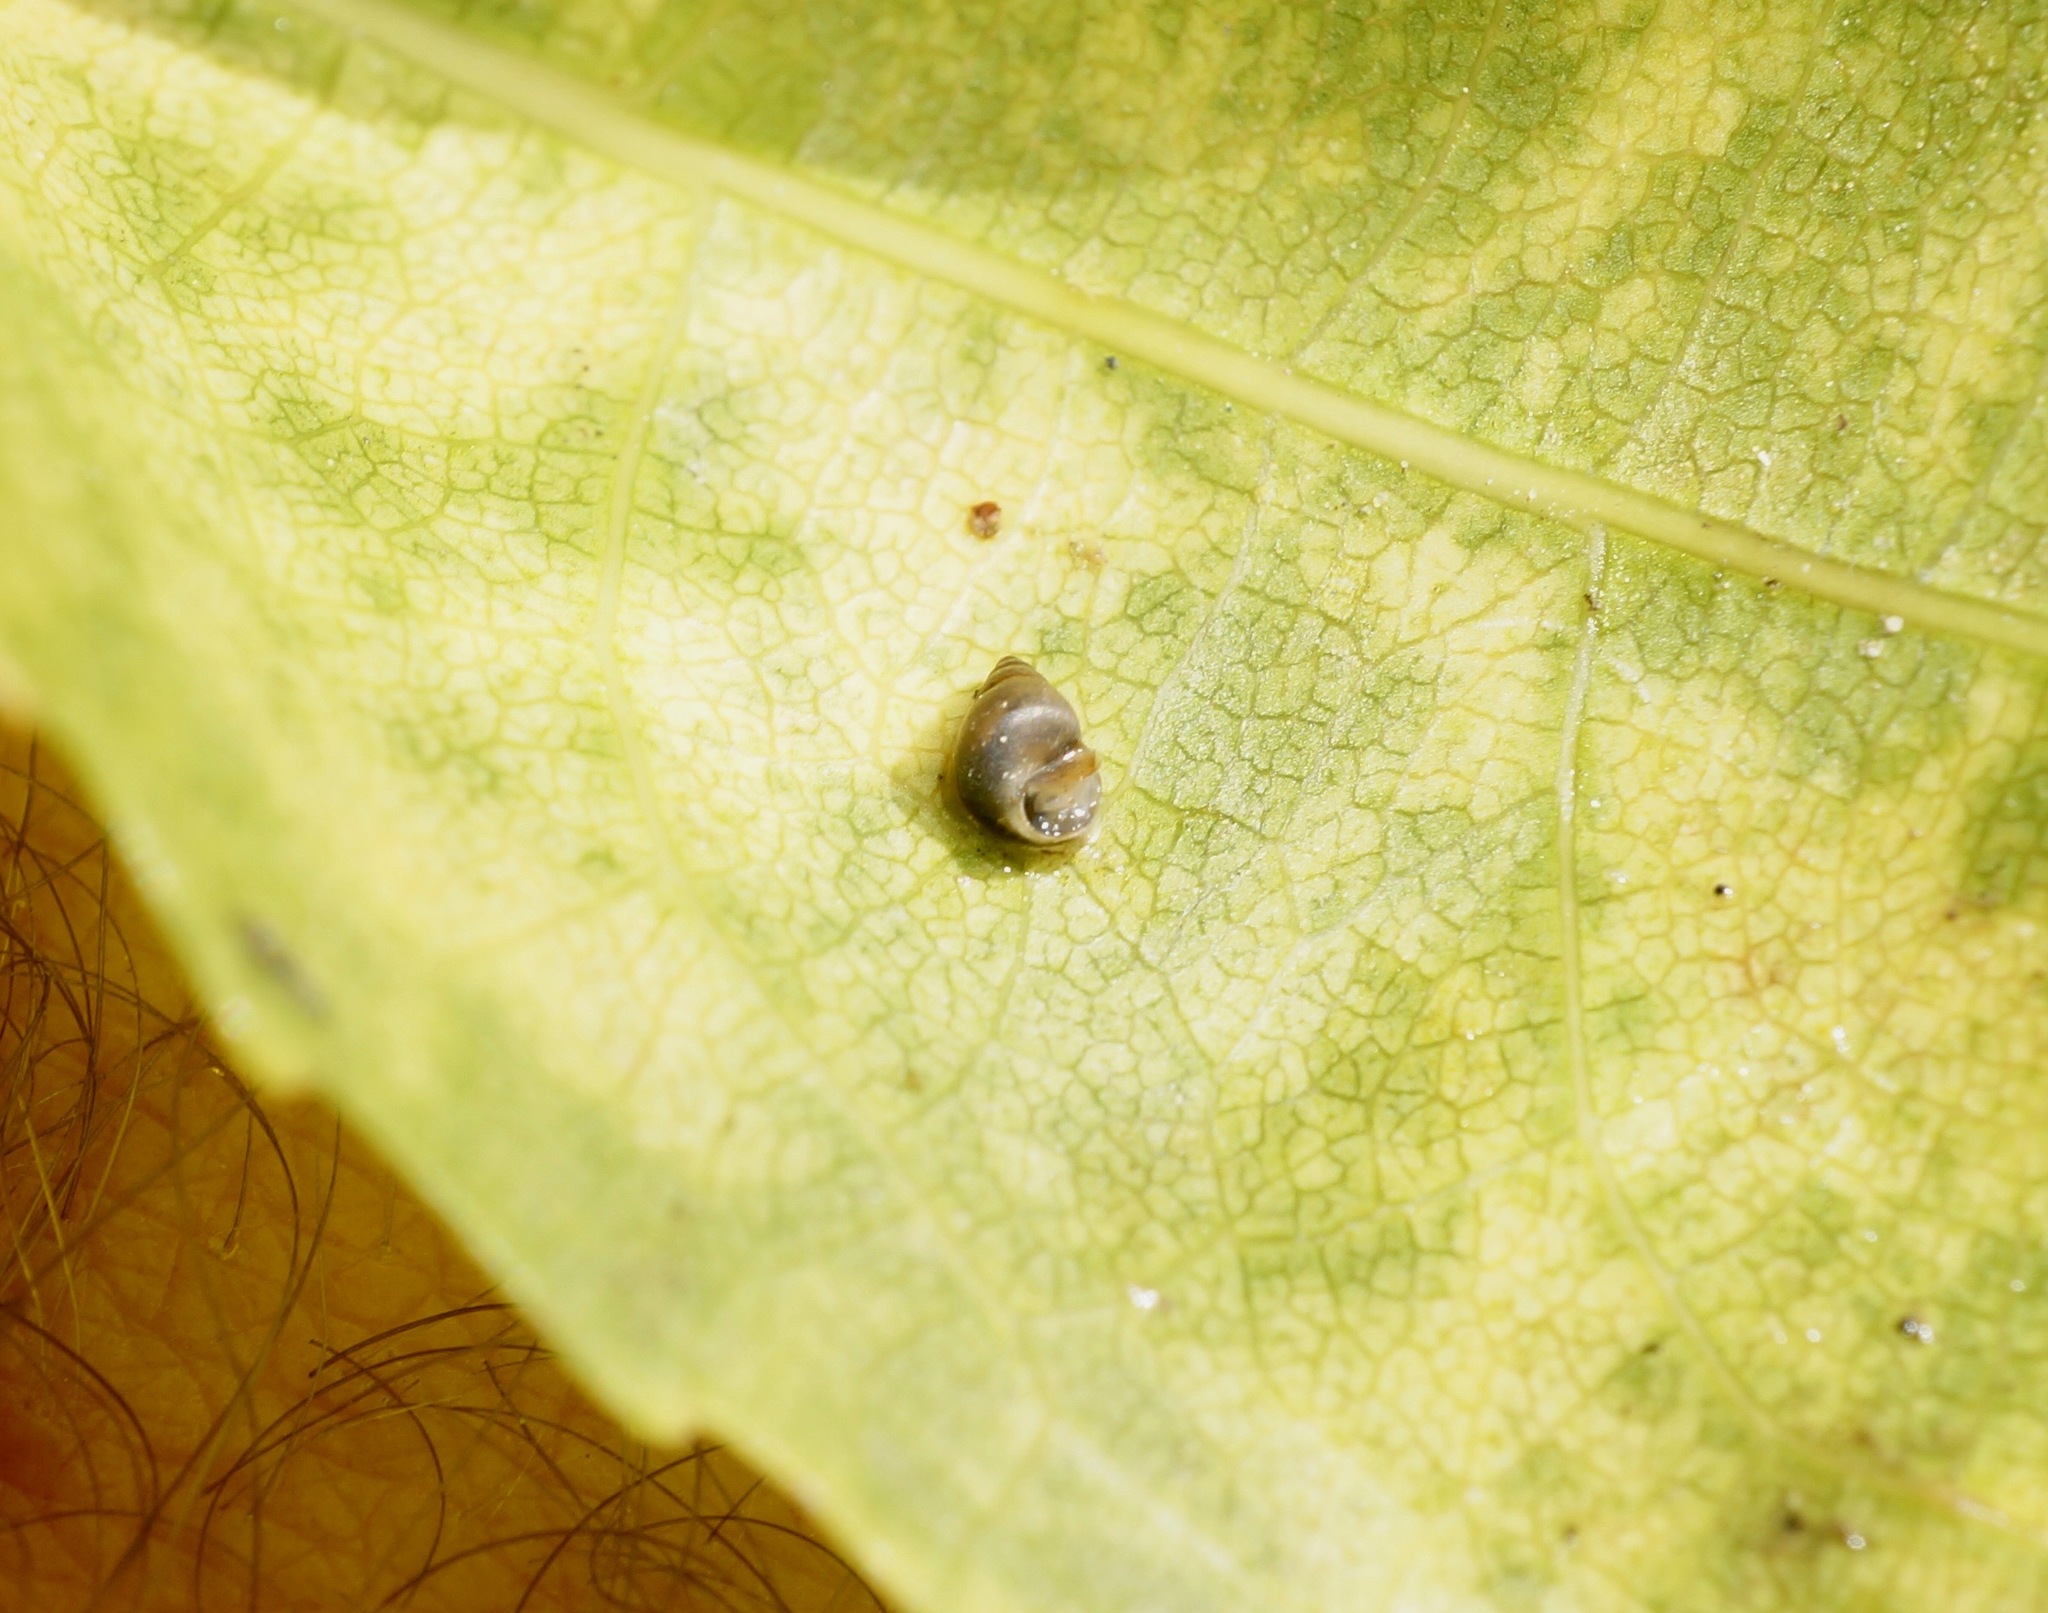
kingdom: Animalia
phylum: Mollusca
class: Gastropoda
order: Littorinimorpha
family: Tateidae
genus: Potamopyrgus
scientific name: Potamopyrgus antipodarum
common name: Jenkins' spire snail
